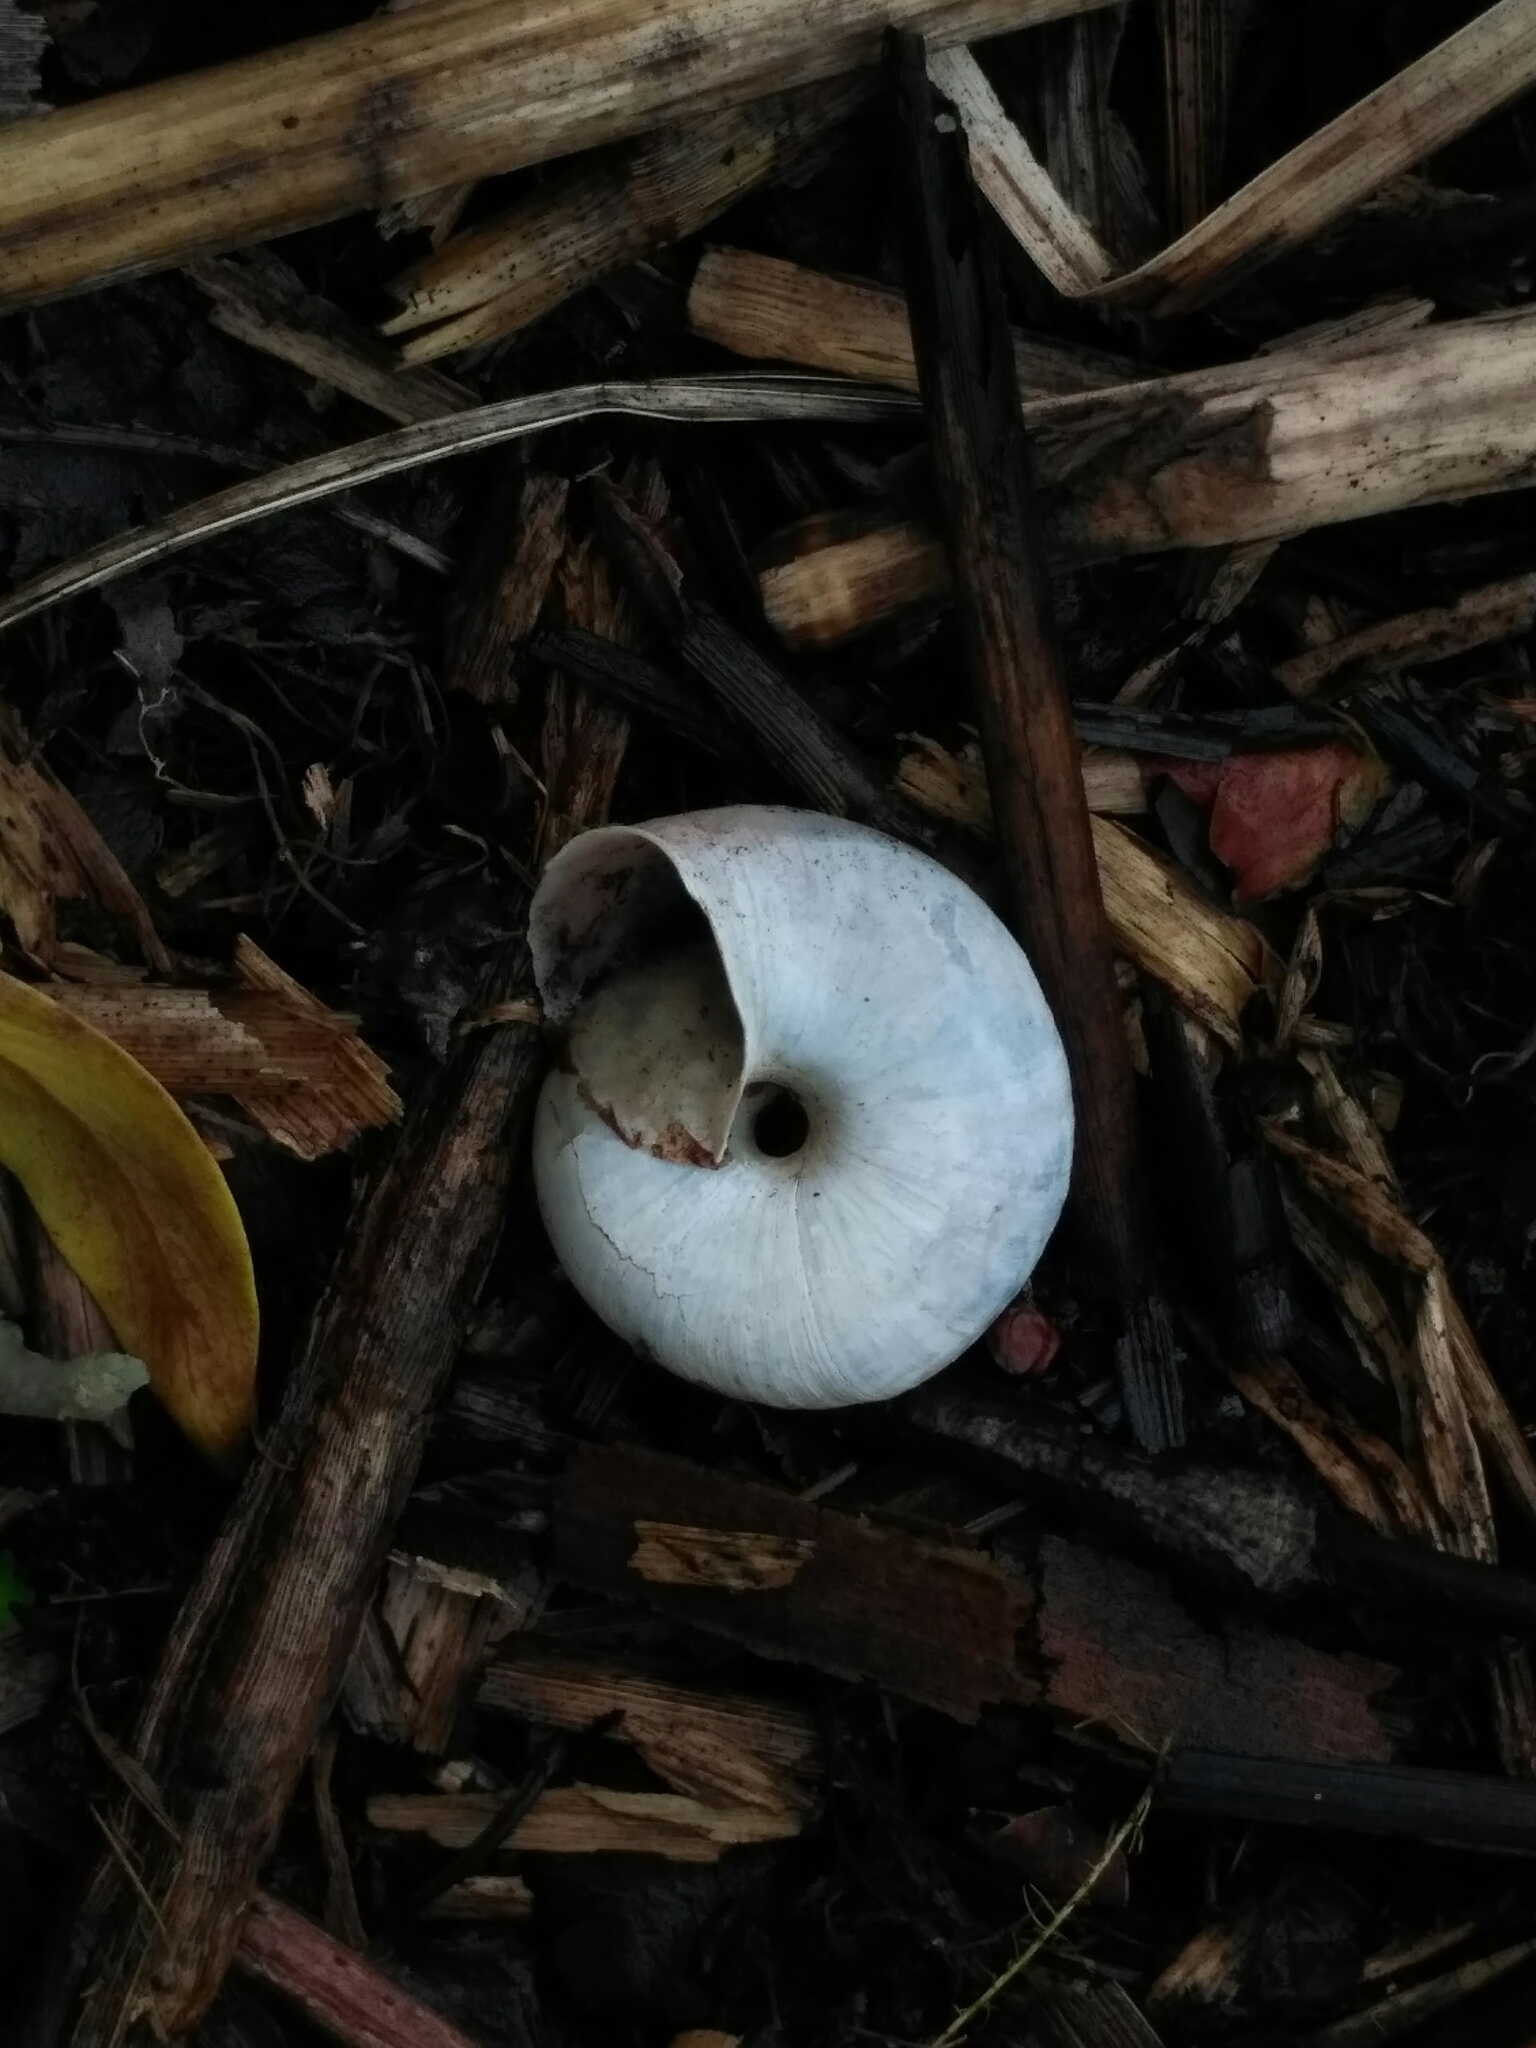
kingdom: Animalia
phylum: Mollusca
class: Gastropoda
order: Stylommatophora
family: Camaenidae
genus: Fruticicola
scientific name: Fruticicola fruticum
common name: Bush snail
